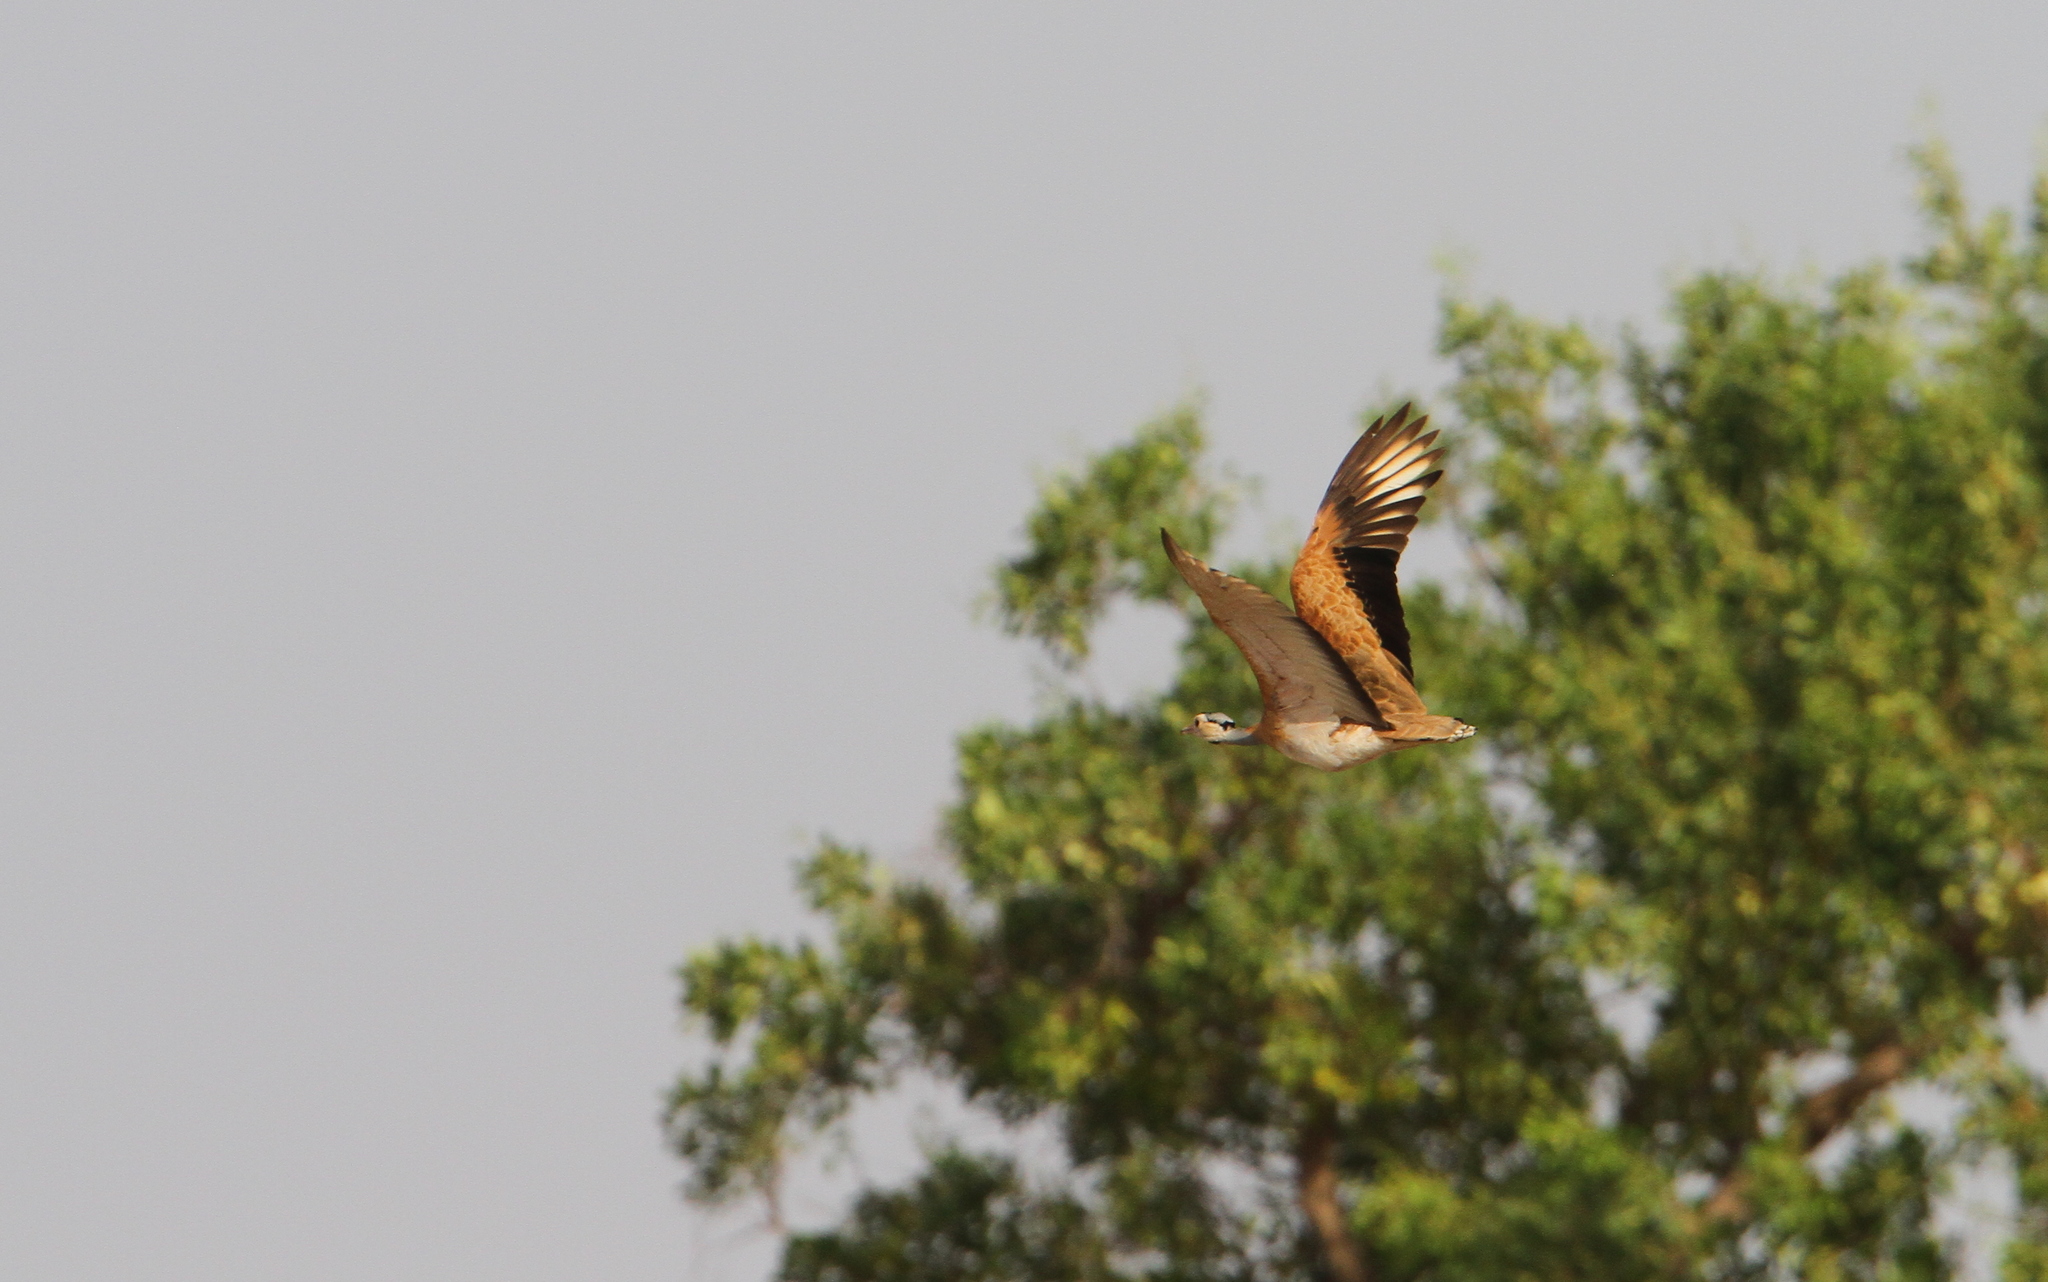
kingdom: Animalia
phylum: Chordata
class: Aves
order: Otidiformes
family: Otididae
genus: Eupodotis
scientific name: Eupodotis senegalensis
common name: White-bellied bustard
